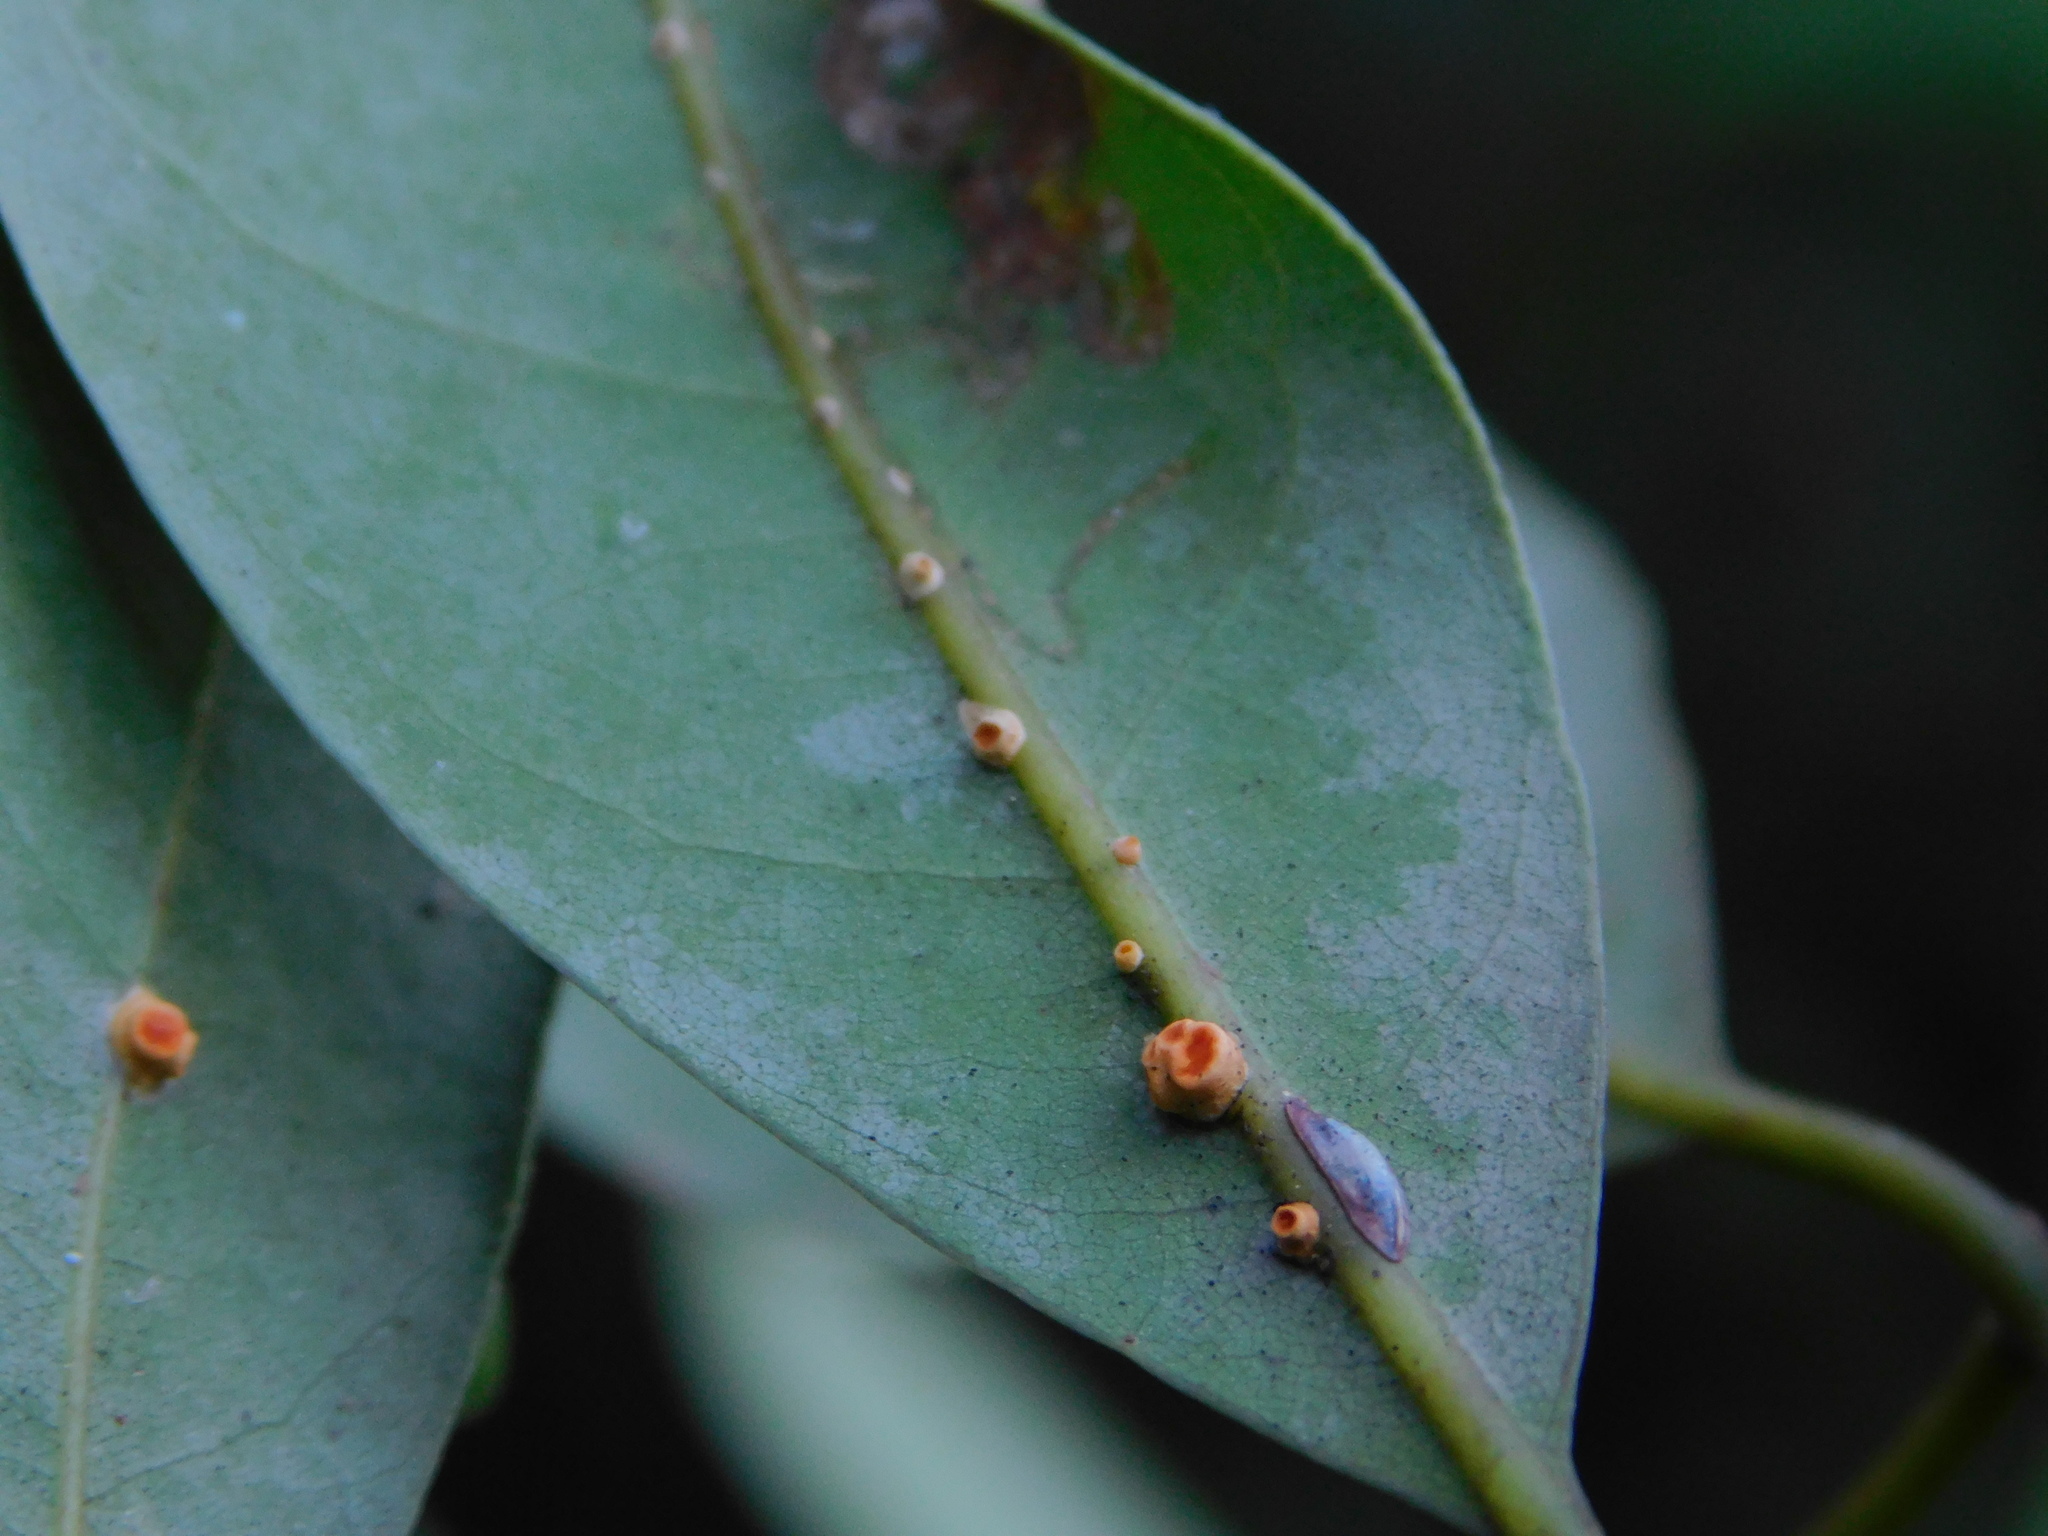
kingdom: Fungi
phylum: Ascomycota
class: Sordariomycetes
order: Hypocreales
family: Clavicipitaceae
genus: Moelleriella
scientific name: Moelleriella epiphylla
